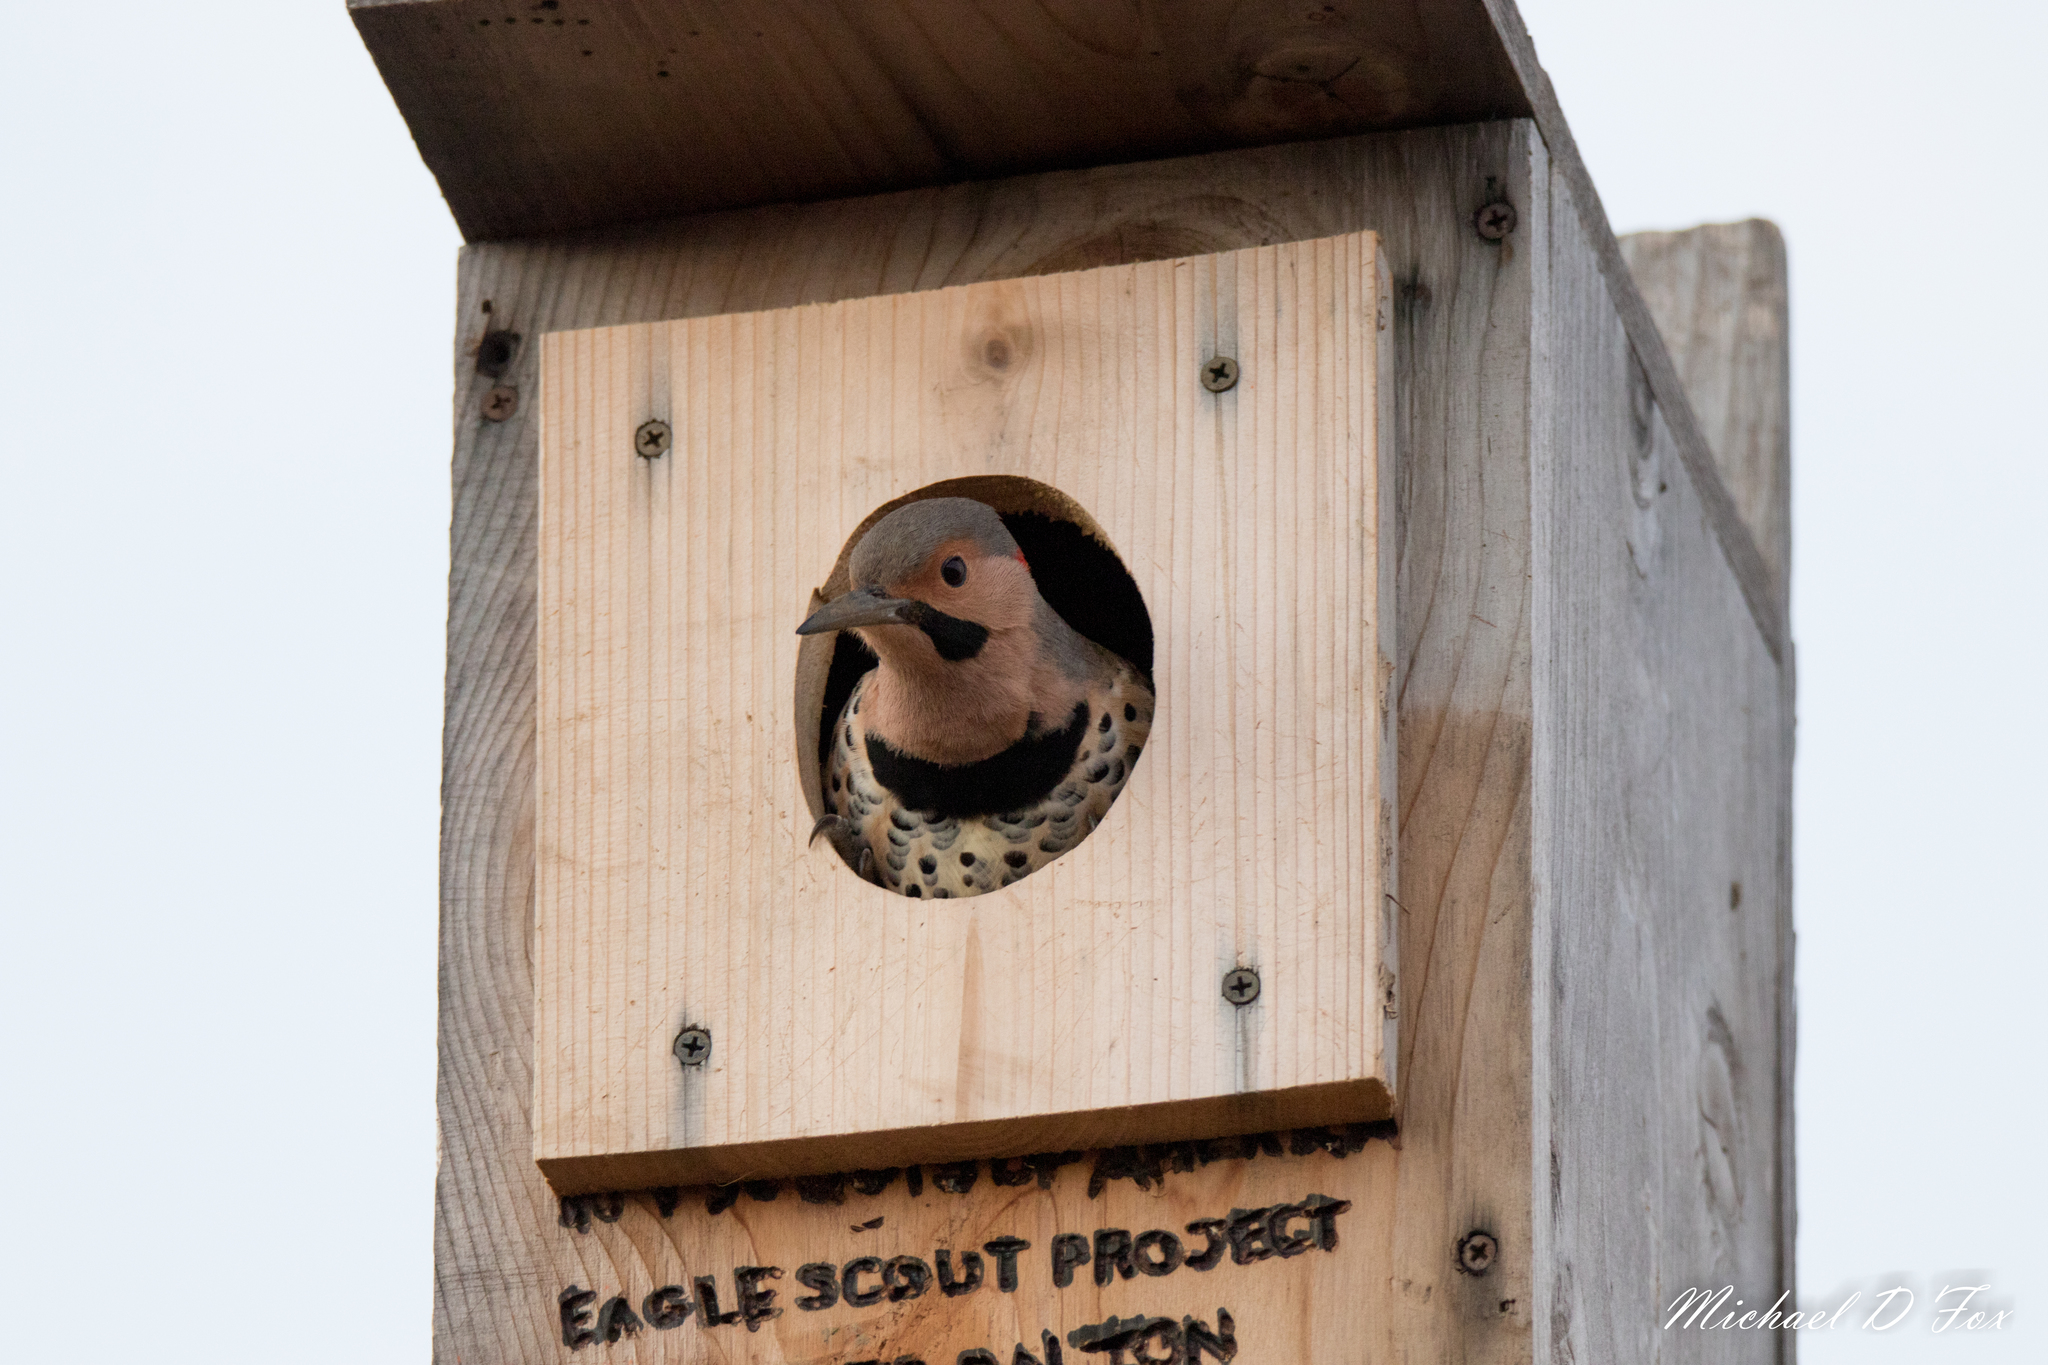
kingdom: Animalia
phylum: Chordata
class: Aves
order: Piciformes
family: Picidae
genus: Colaptes
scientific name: Colaptes auratus
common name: Northern flicker
